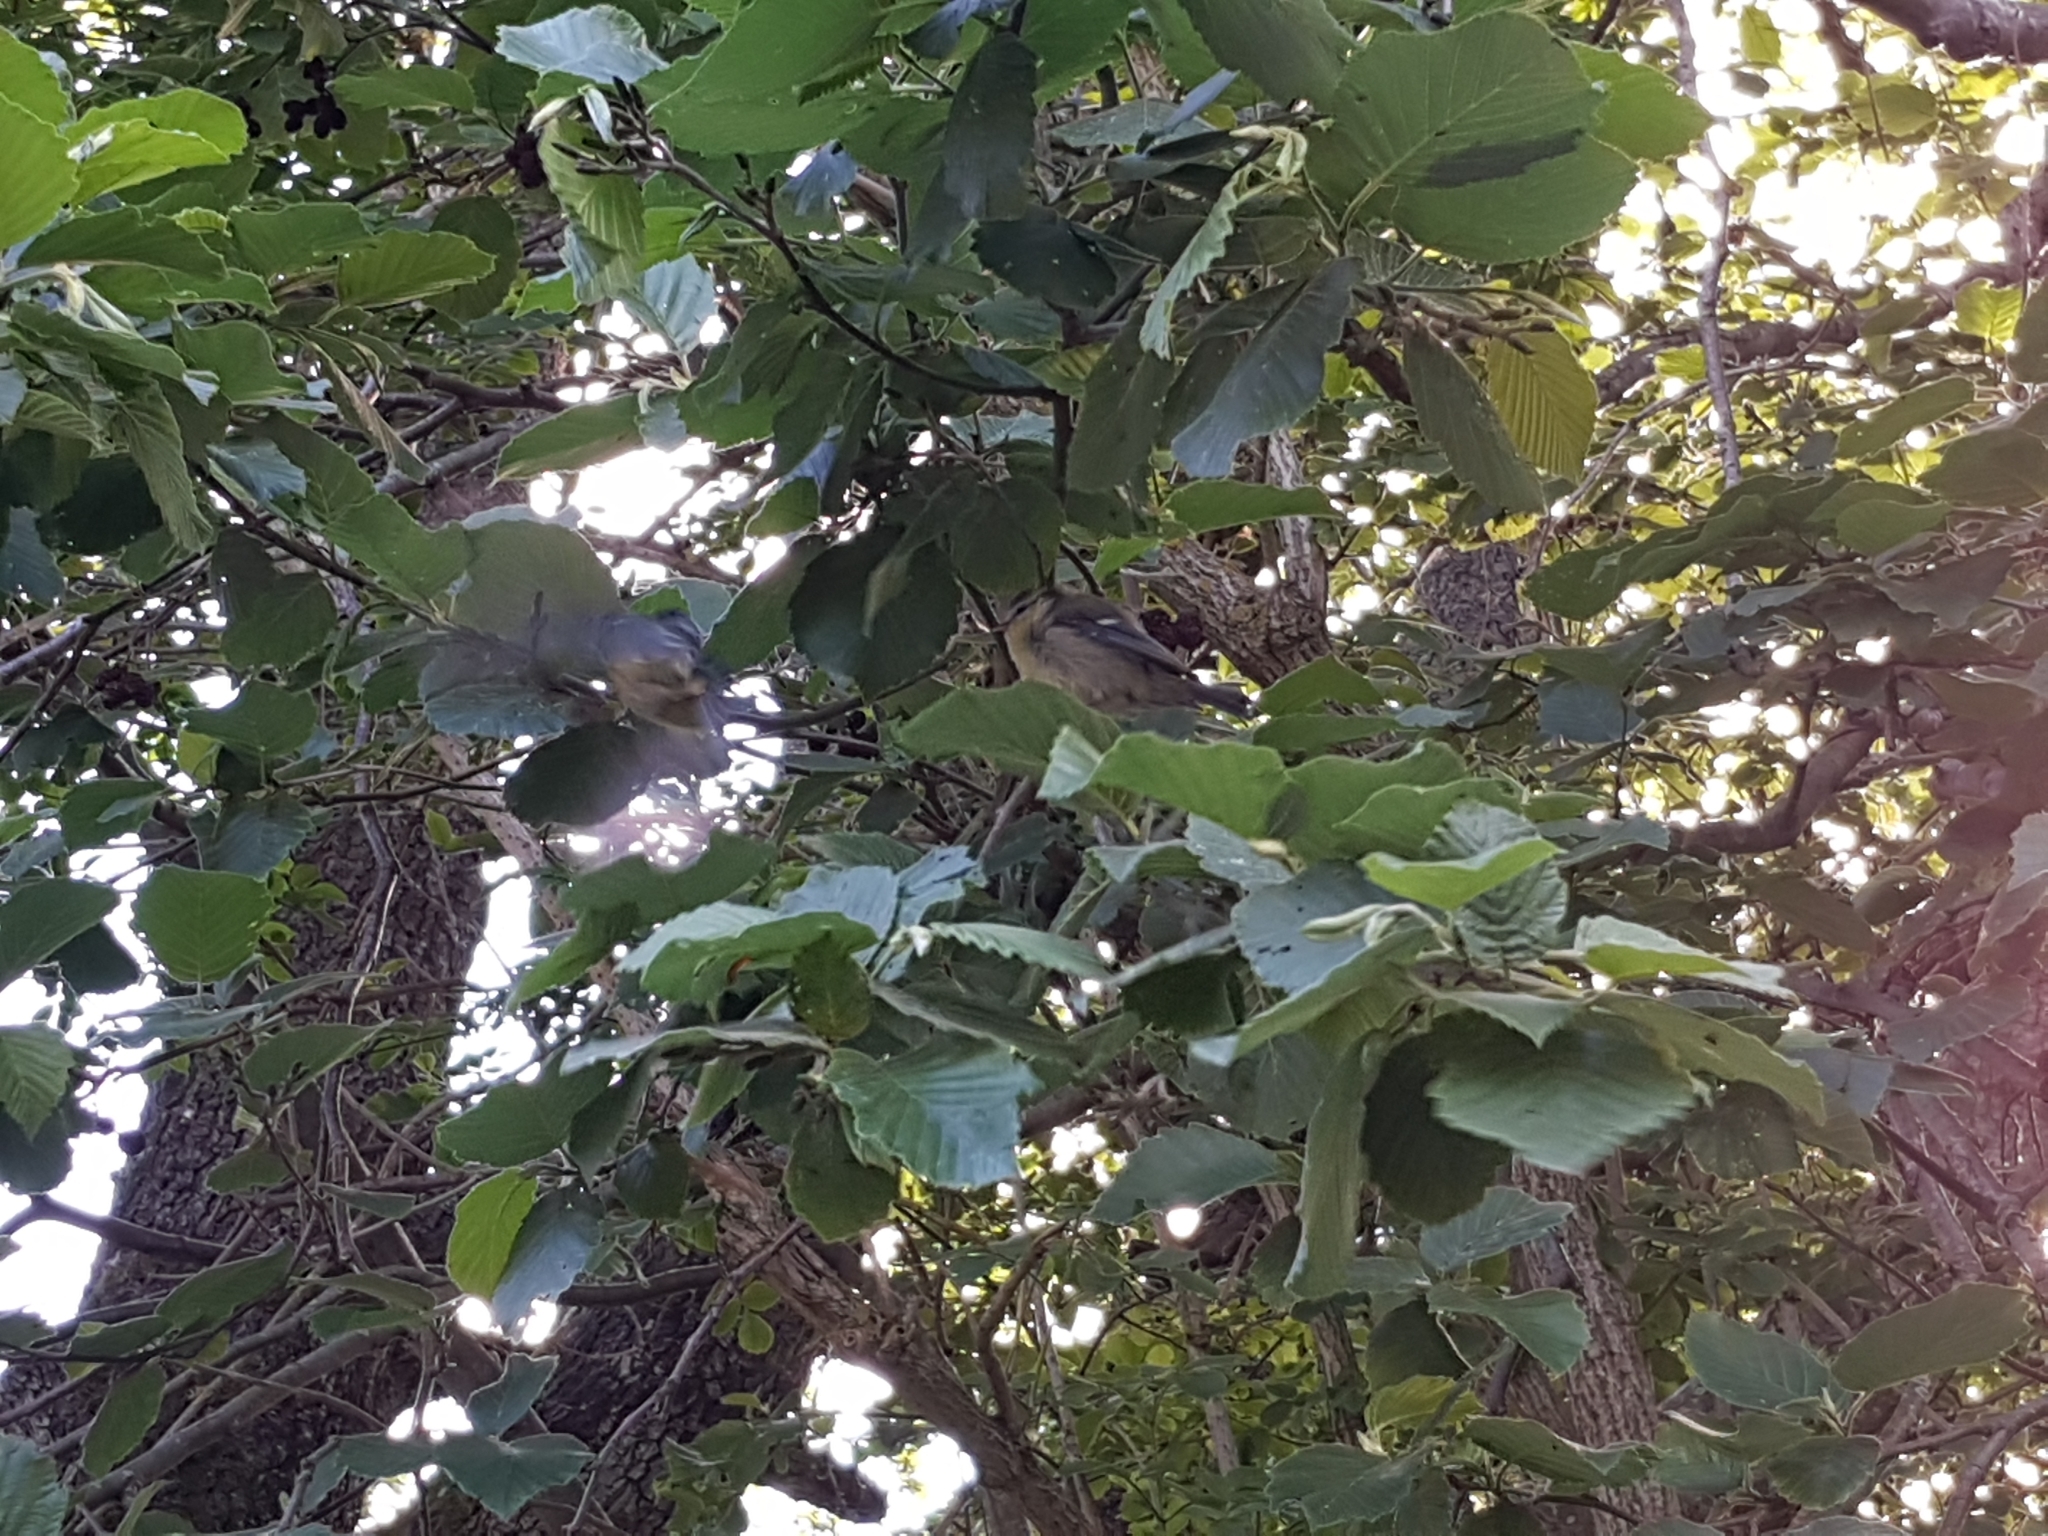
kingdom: Animalia
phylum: Chordata
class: Aves
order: Passeriformes
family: Paridae
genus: Cyanistes
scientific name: Cyanistes caeruleus
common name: Eurasian blue tit
